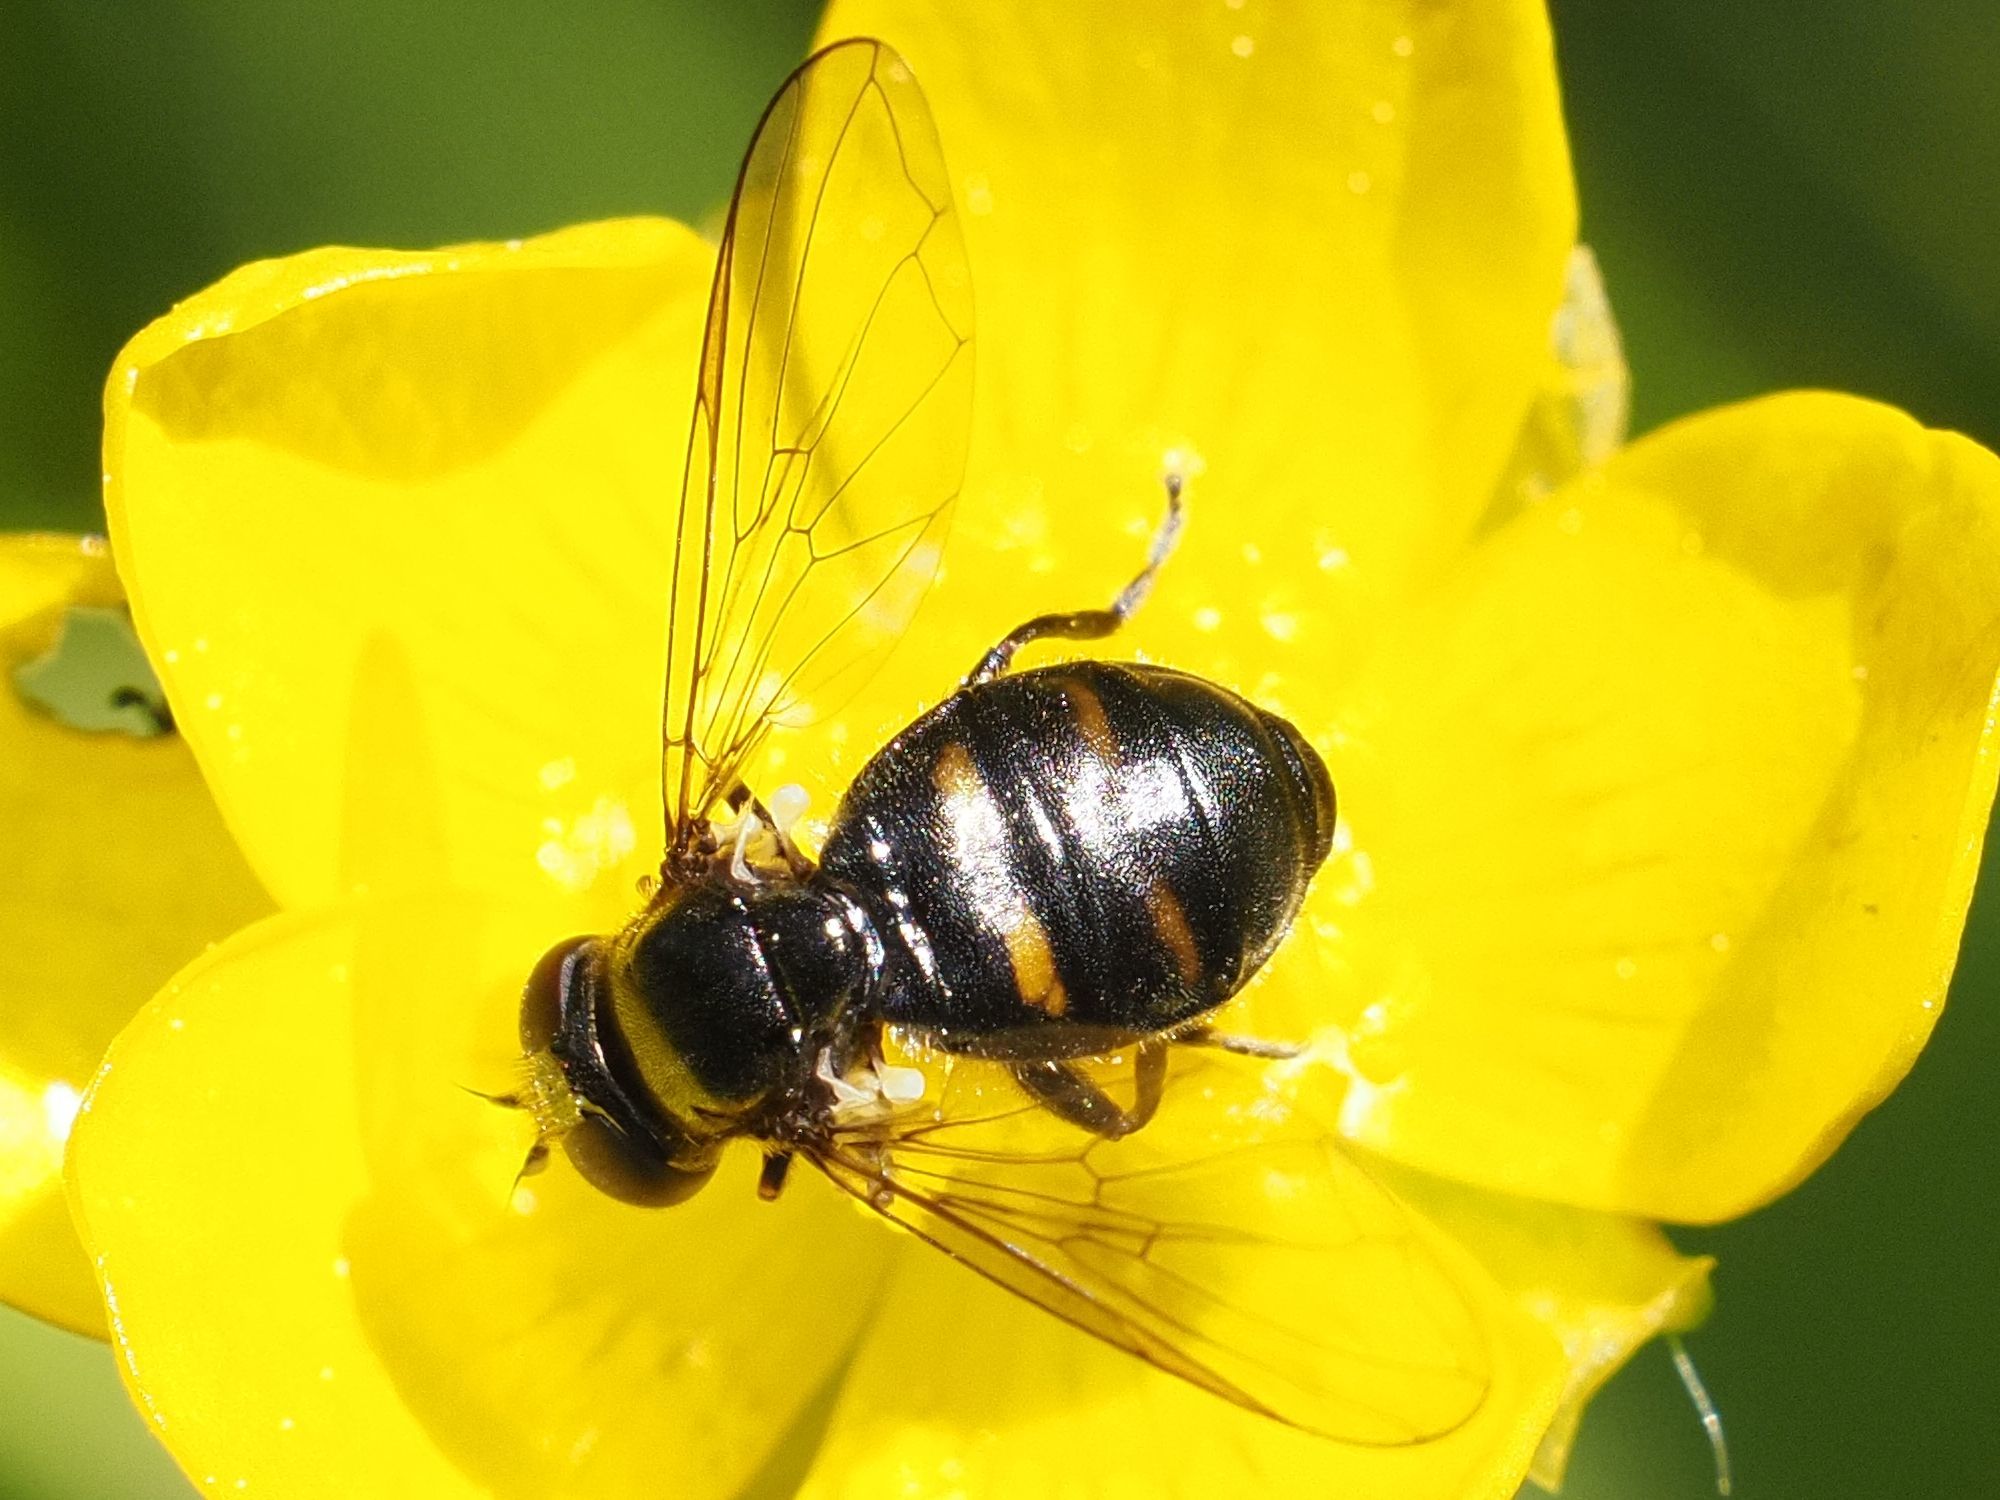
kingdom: Animalia
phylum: Arthropoda
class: Insecta
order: Diptera
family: Syrphidae
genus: Pipiza
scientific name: Pipiza quadrimaculata
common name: Four-spotted pipiza
